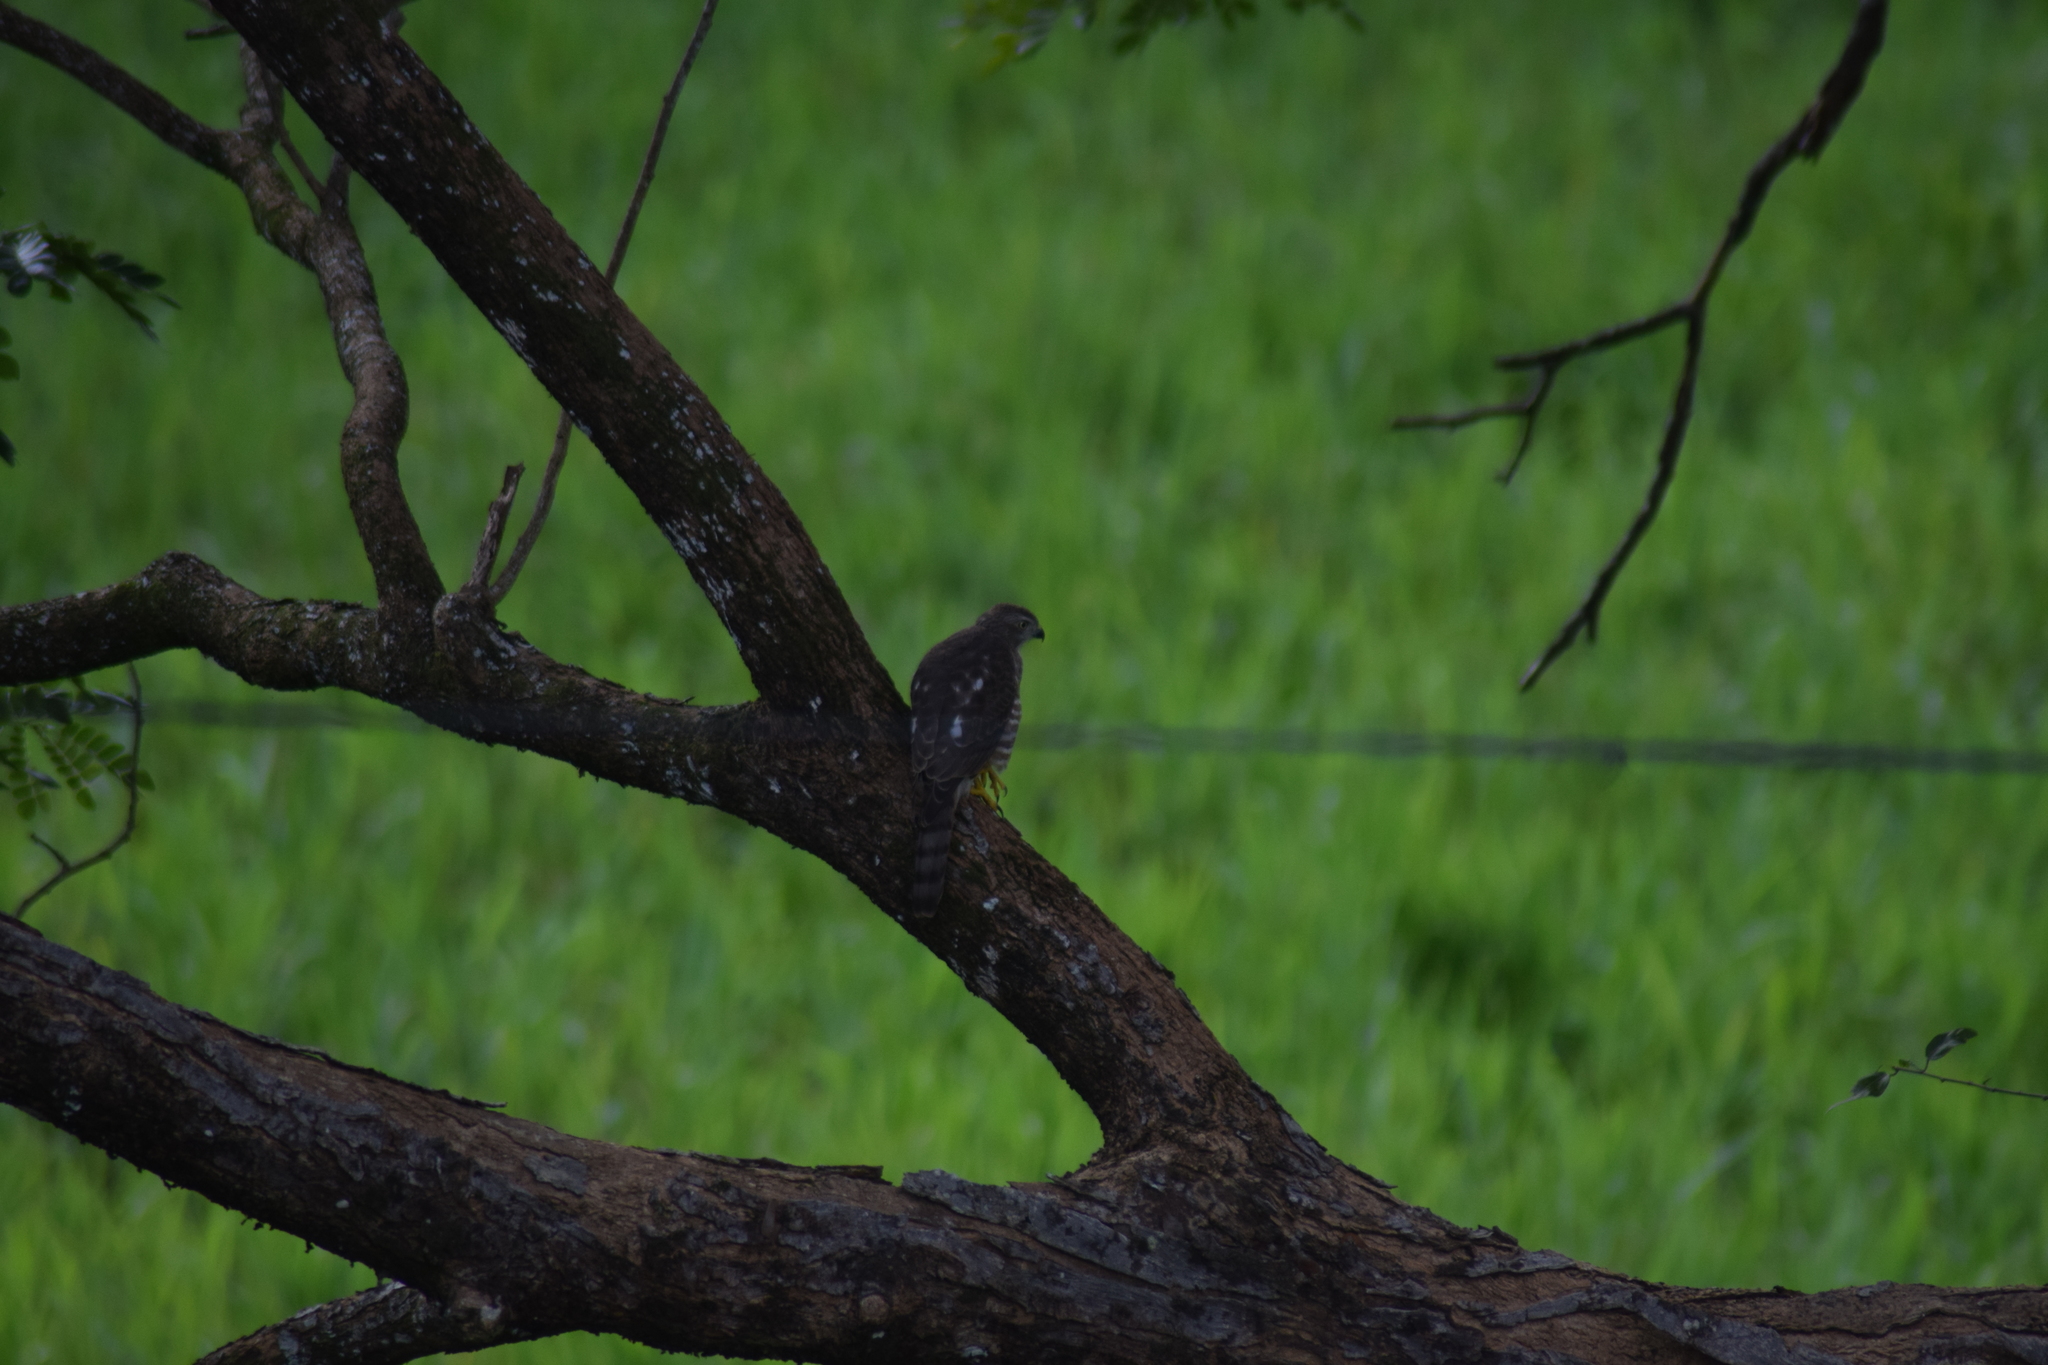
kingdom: Animalia
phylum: Chordata
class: Aves
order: Accipitriformes
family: Accipitridae
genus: Accipiter
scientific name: Accipiter badius
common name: Shikra
